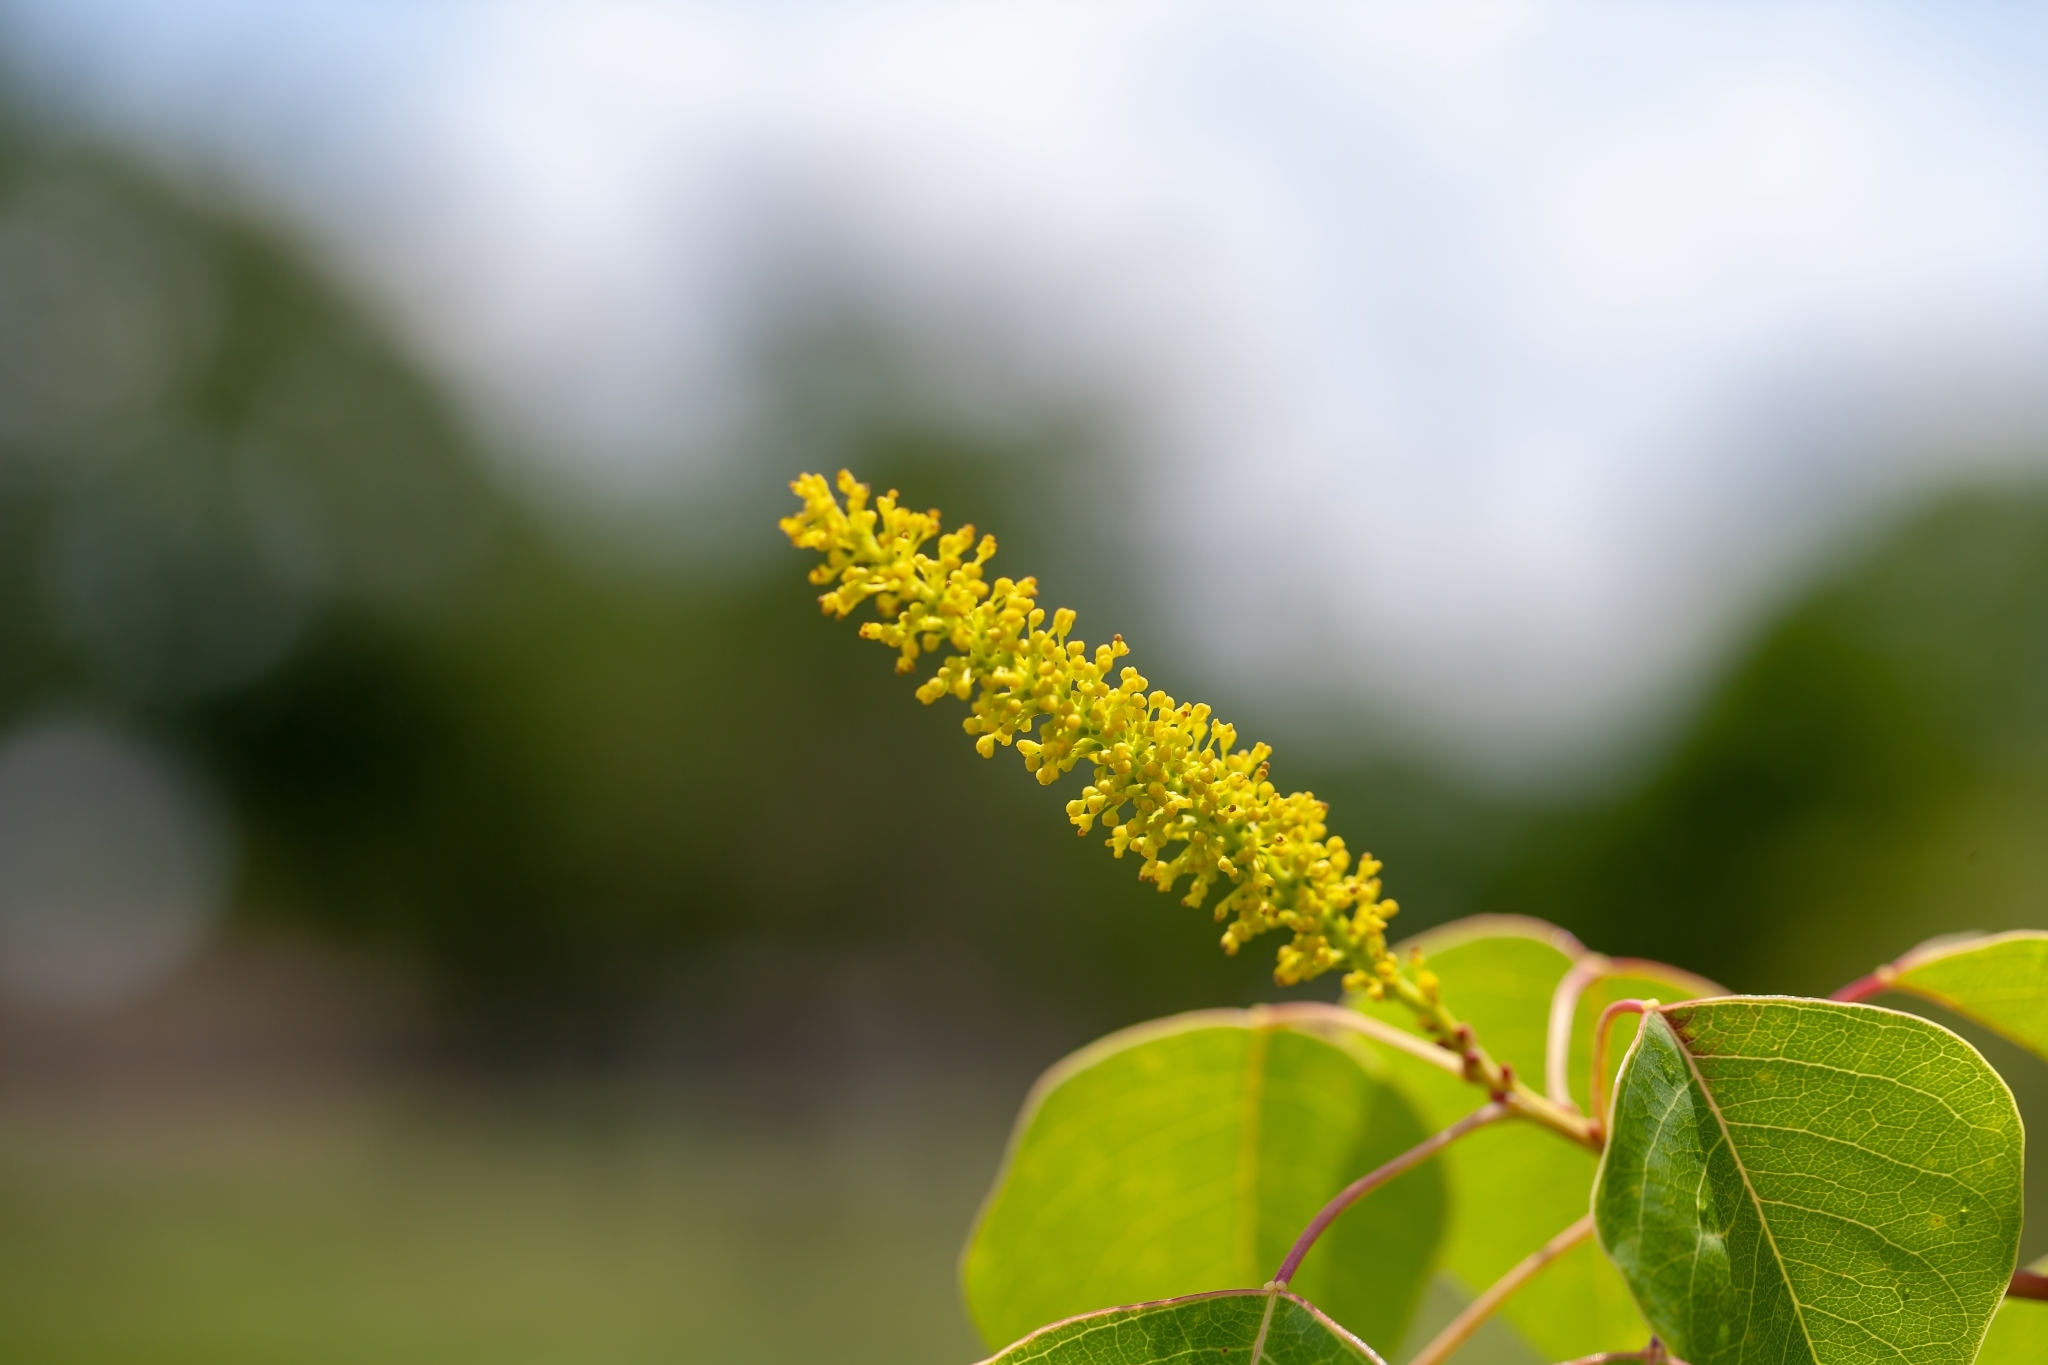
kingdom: Plantae
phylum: Tracheophyta
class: Magnoliopsida
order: Malpighiales
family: Euphorbiaceae
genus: Triadica
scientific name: Triadica sebifera
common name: Chinese tallow
